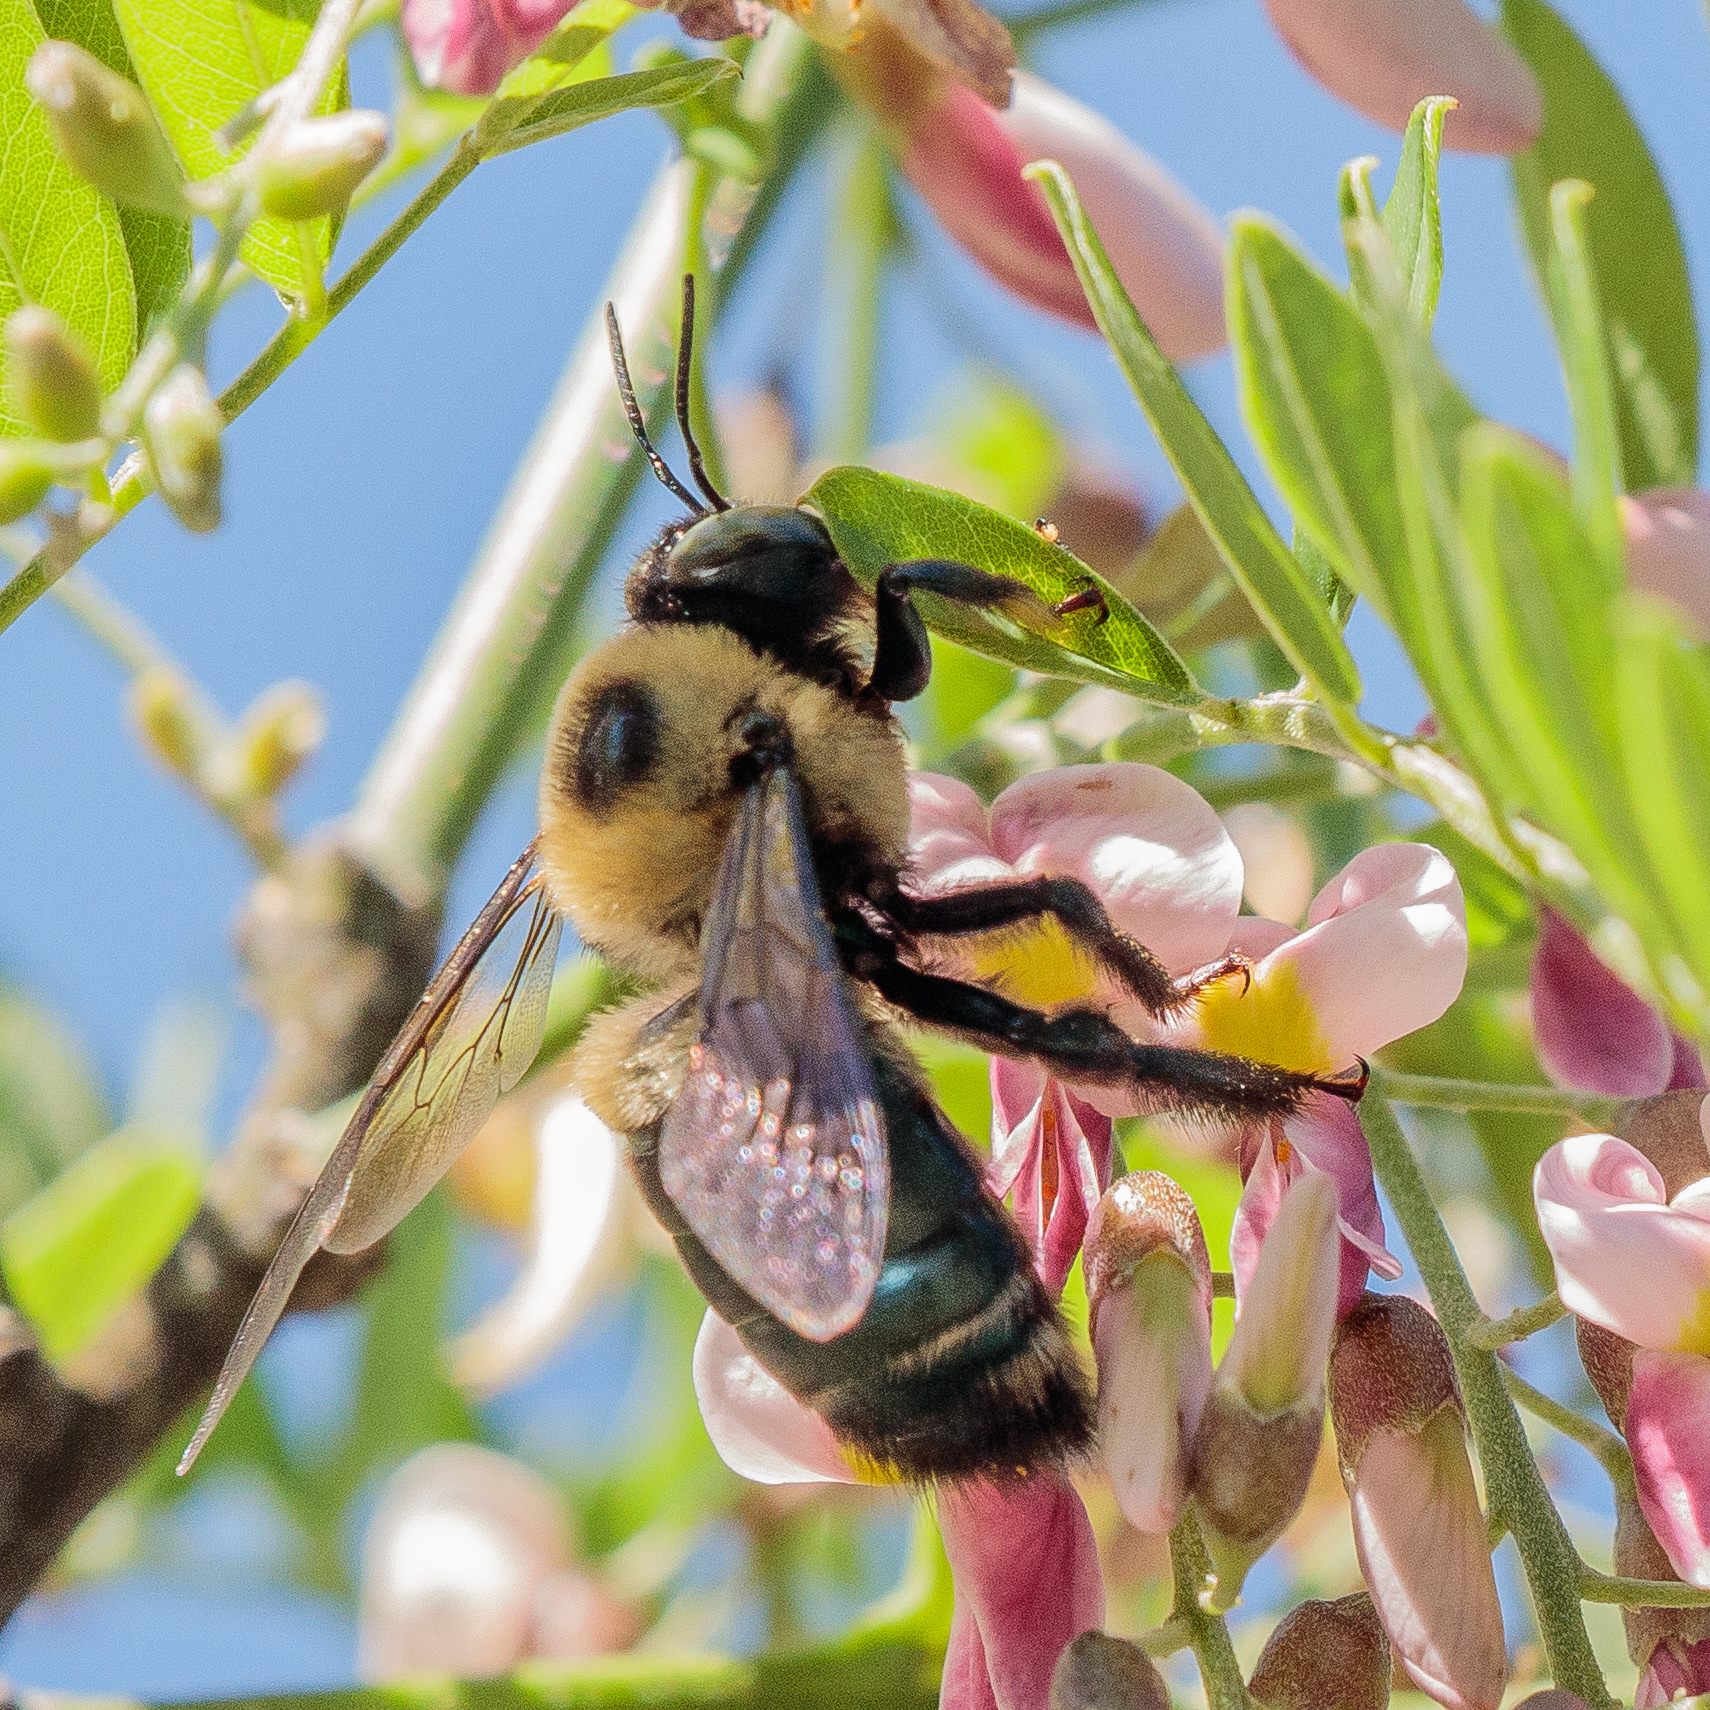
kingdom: Animalia
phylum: Arthropoda
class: Insecta
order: Hymenoptera
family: Apidae
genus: Xylocopa
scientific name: Xylocopa virginica
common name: Carpenter bee
